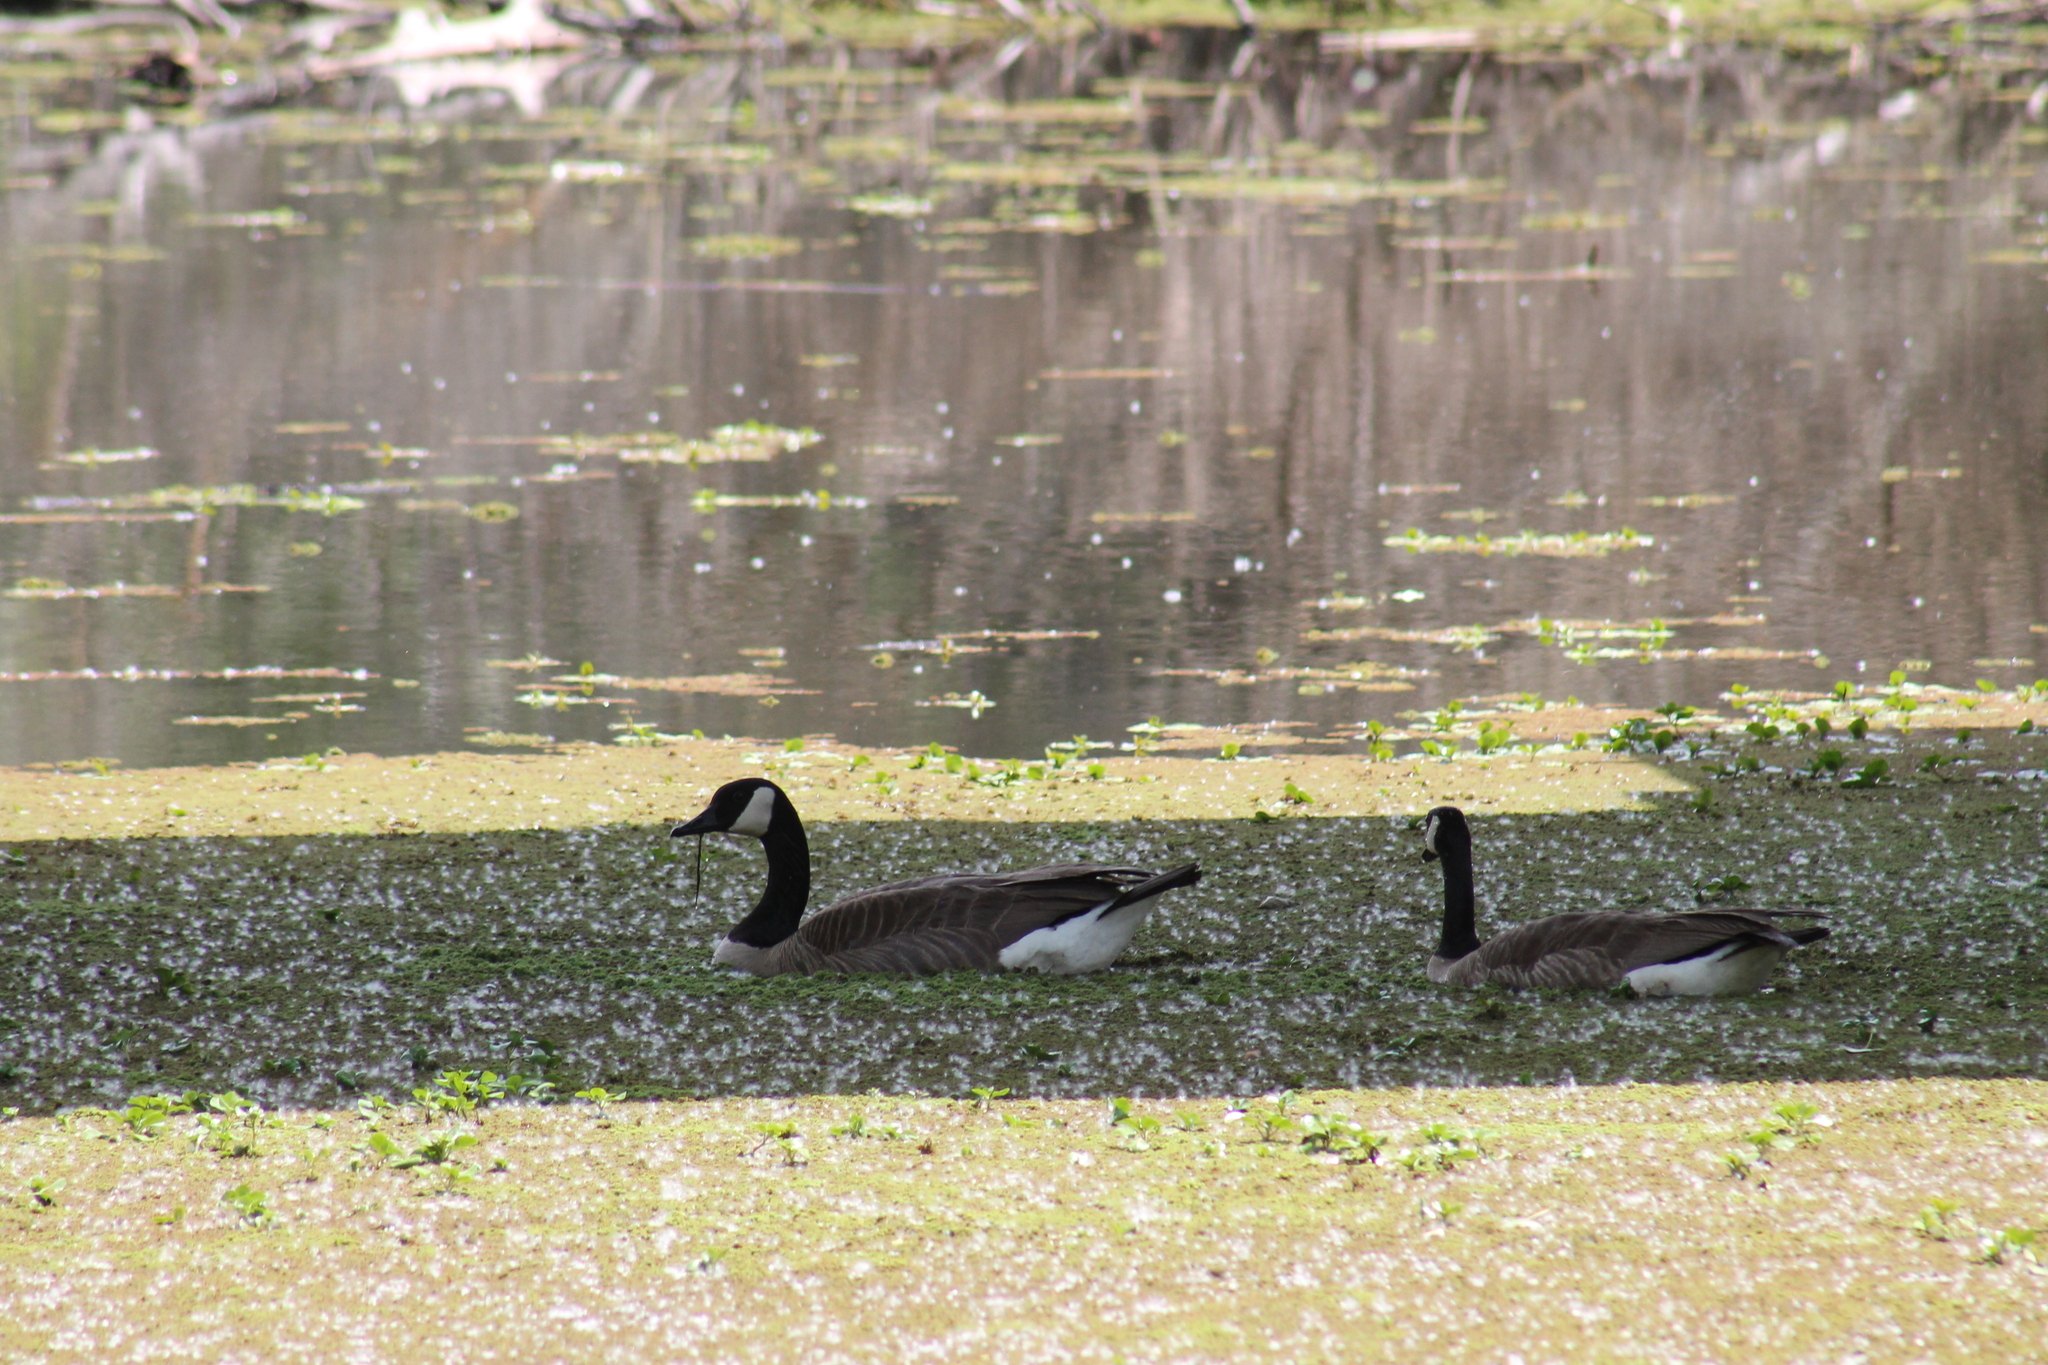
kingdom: Animalia
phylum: Chordata
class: Aves
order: Anseriformes
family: Anatidae
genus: Branta
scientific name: Branta canadensis
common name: Canada goose
